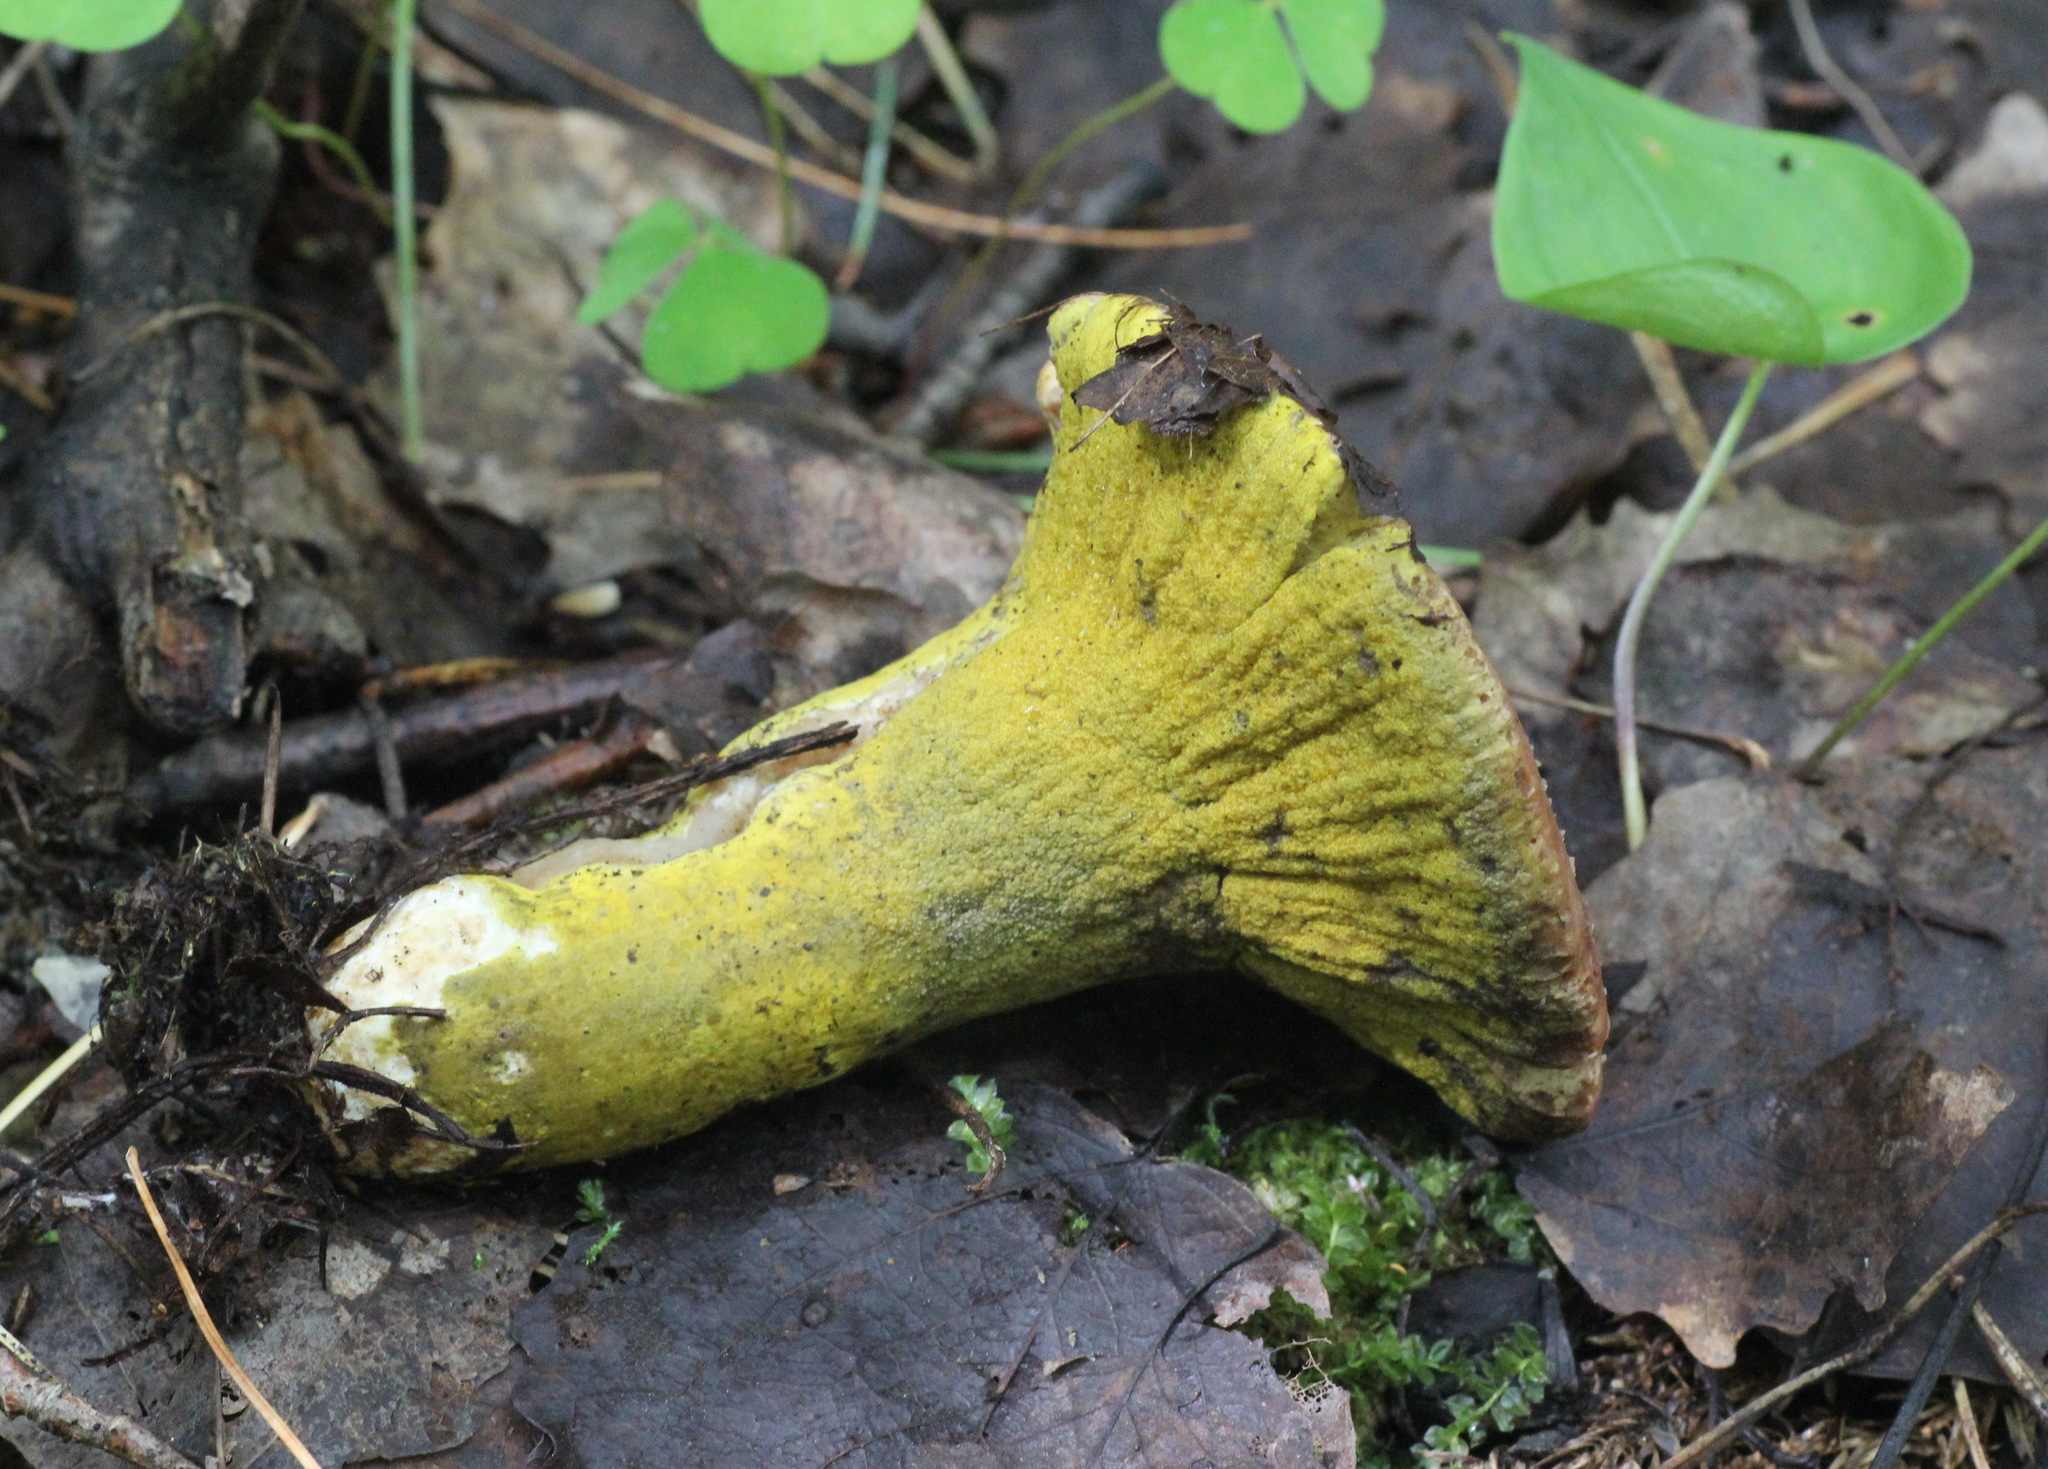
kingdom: Fungi
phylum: Ascomycota
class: Sordariomycetes
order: Hypocreales
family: Hypocreaceae
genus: Hypomyces
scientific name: Hypomyces luteovirens
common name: Yellow-green russula mold
